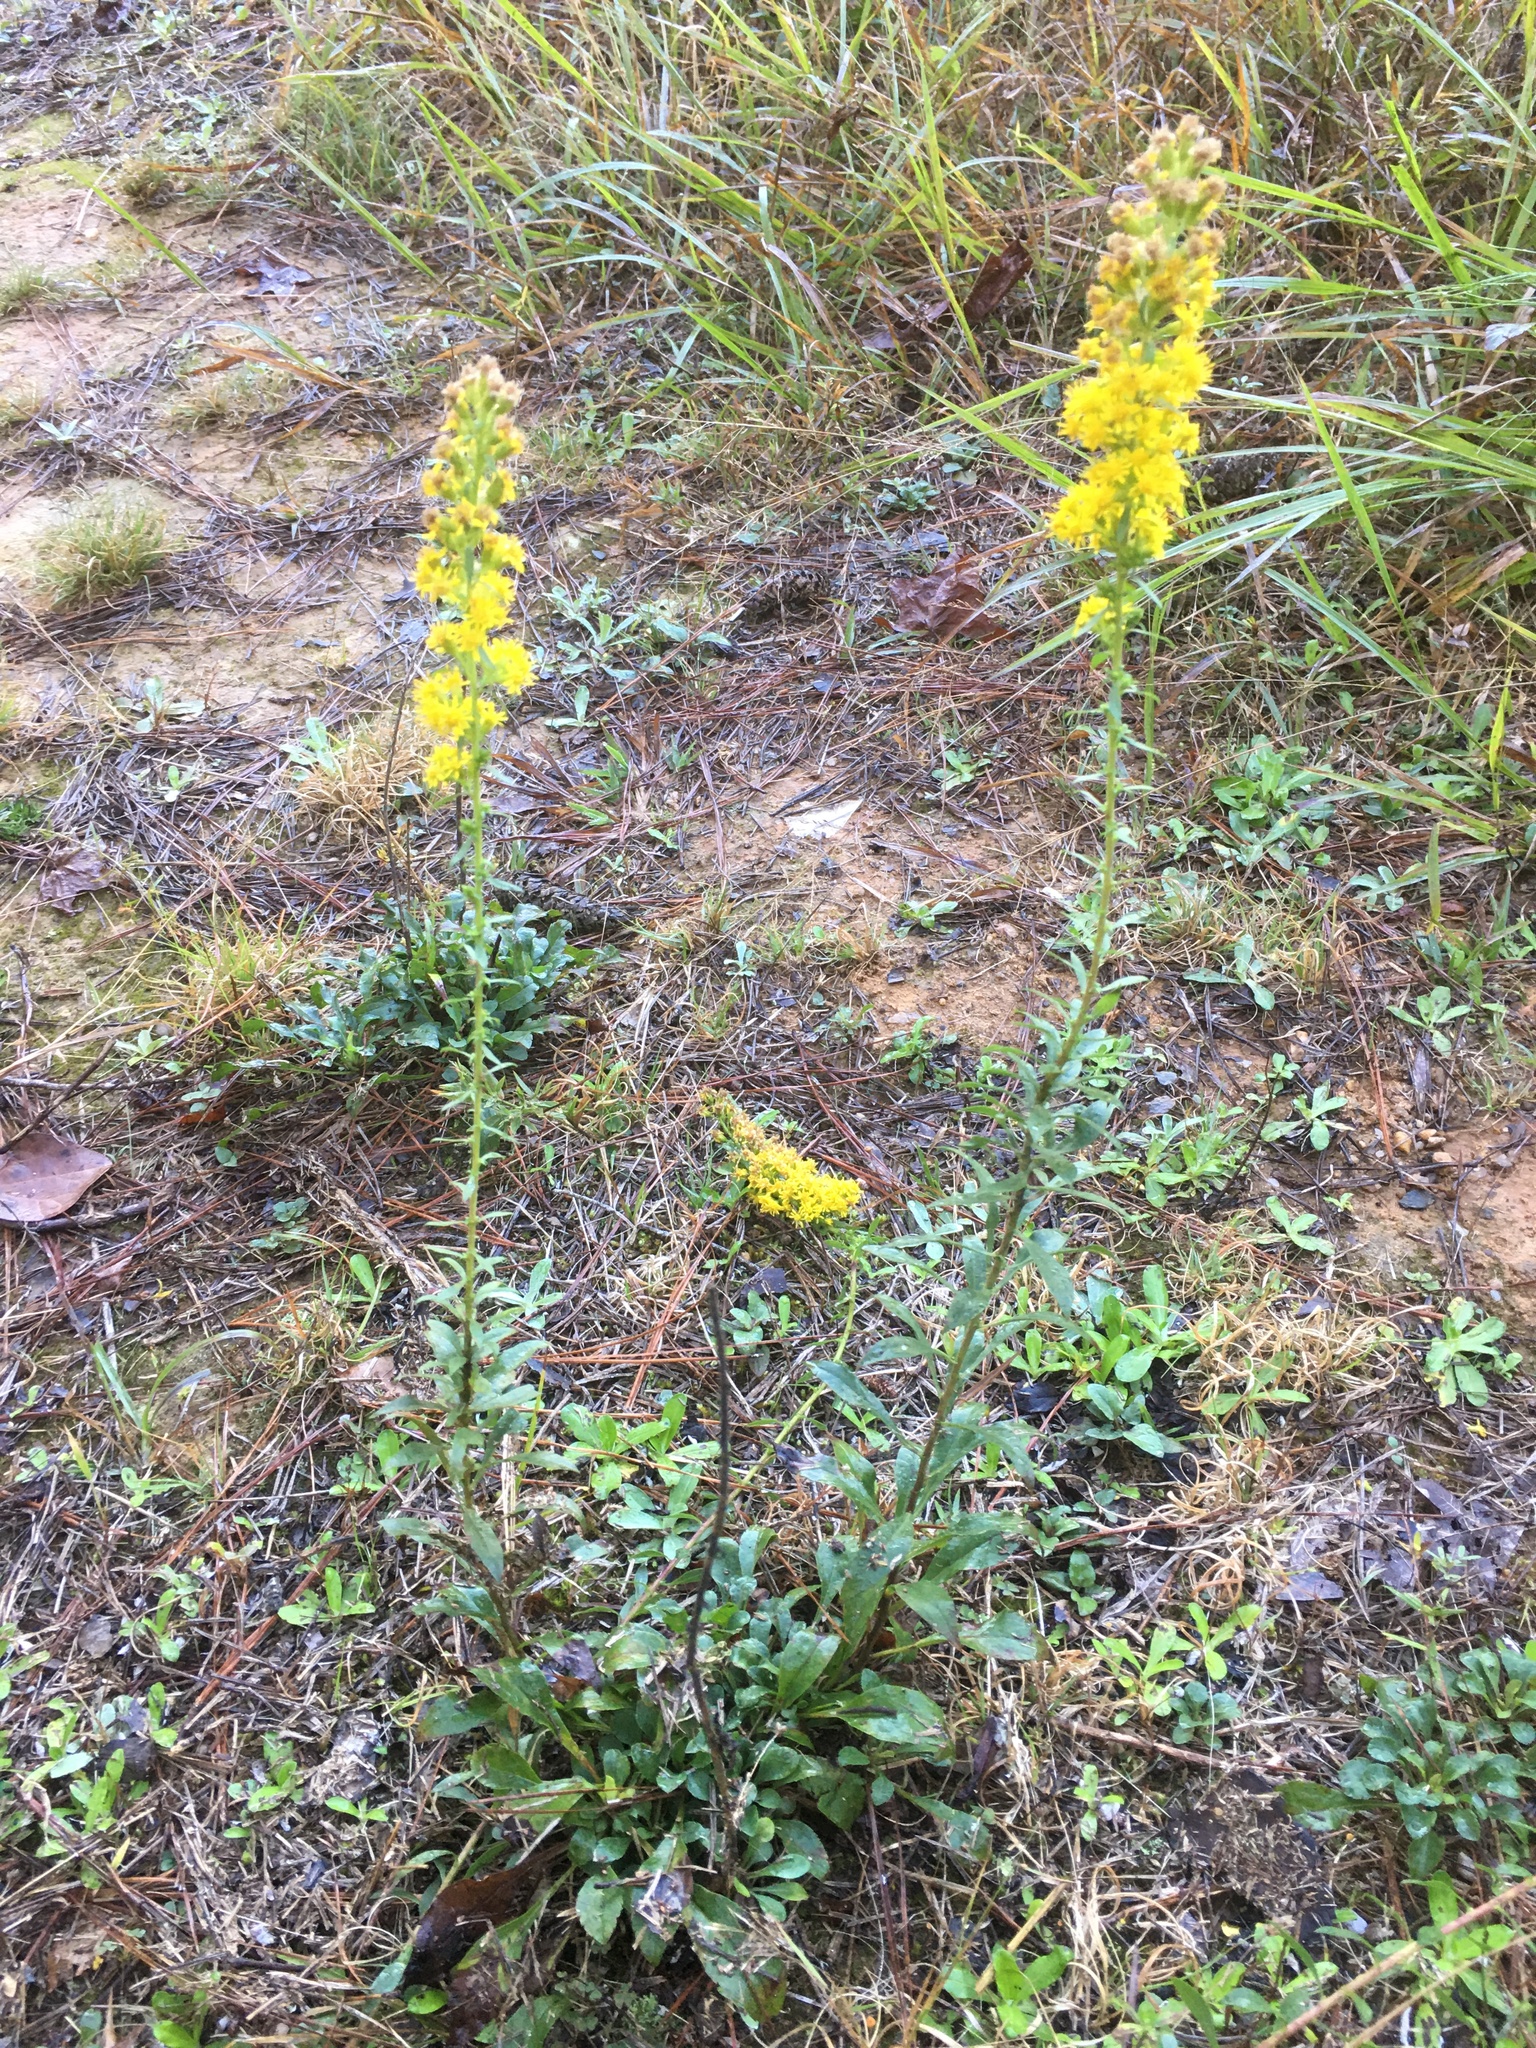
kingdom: Plantae
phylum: Tracheophyta
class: Magnoliopsida
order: Asterales
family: Asteraceae
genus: Solidago
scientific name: Solidago erecta
